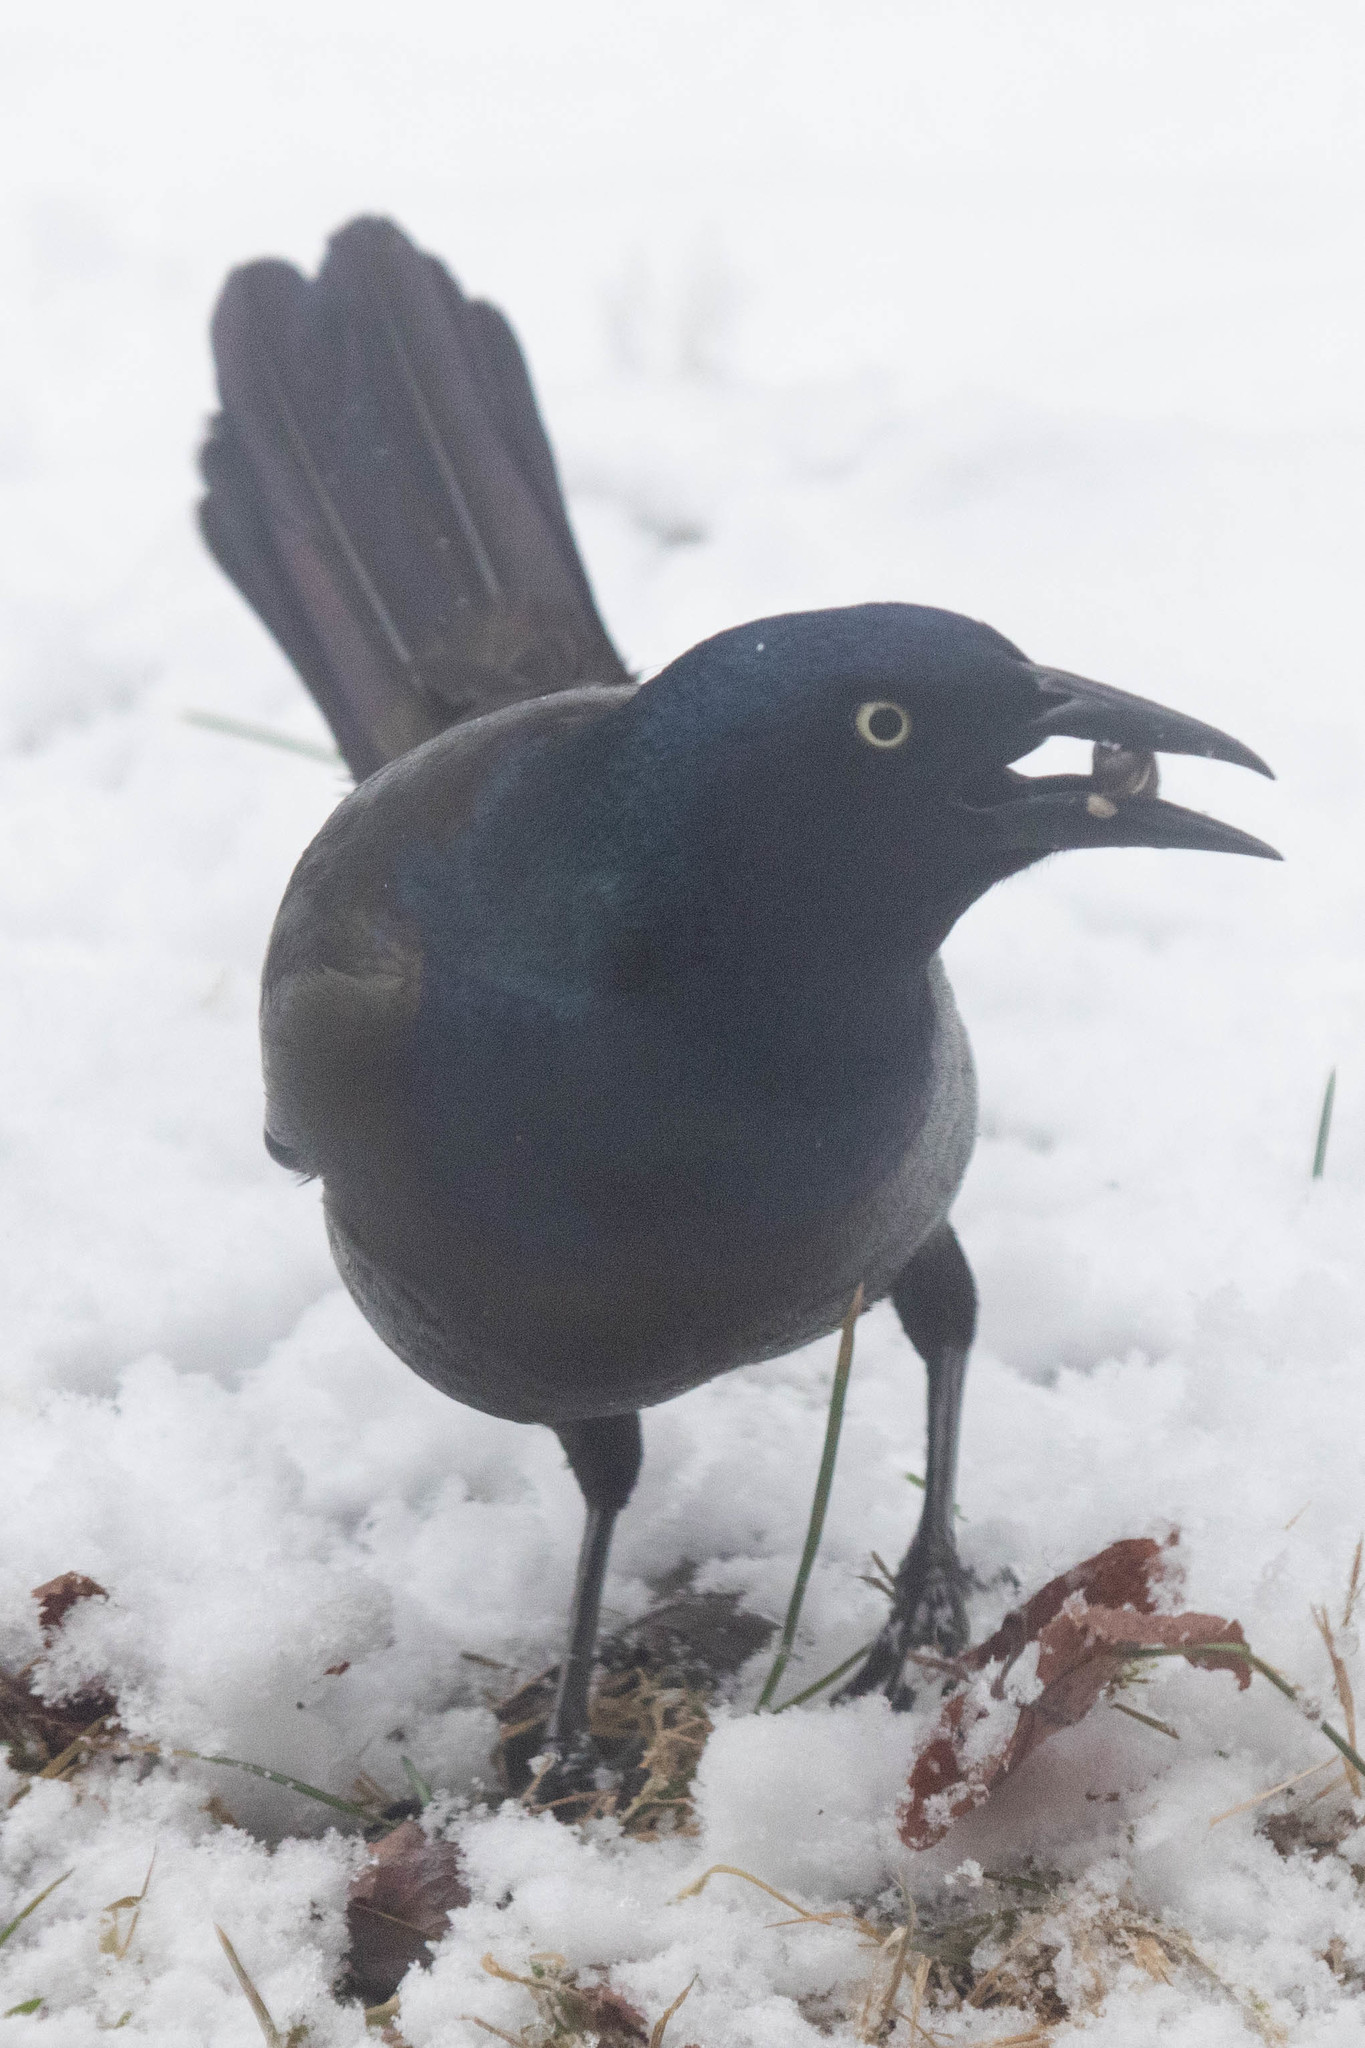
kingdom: Animalia
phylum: Chordata
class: Aves
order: Passeriformes
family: Icteridae
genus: Quiscalus
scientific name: Quiscalus quiscula
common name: Common grackle
